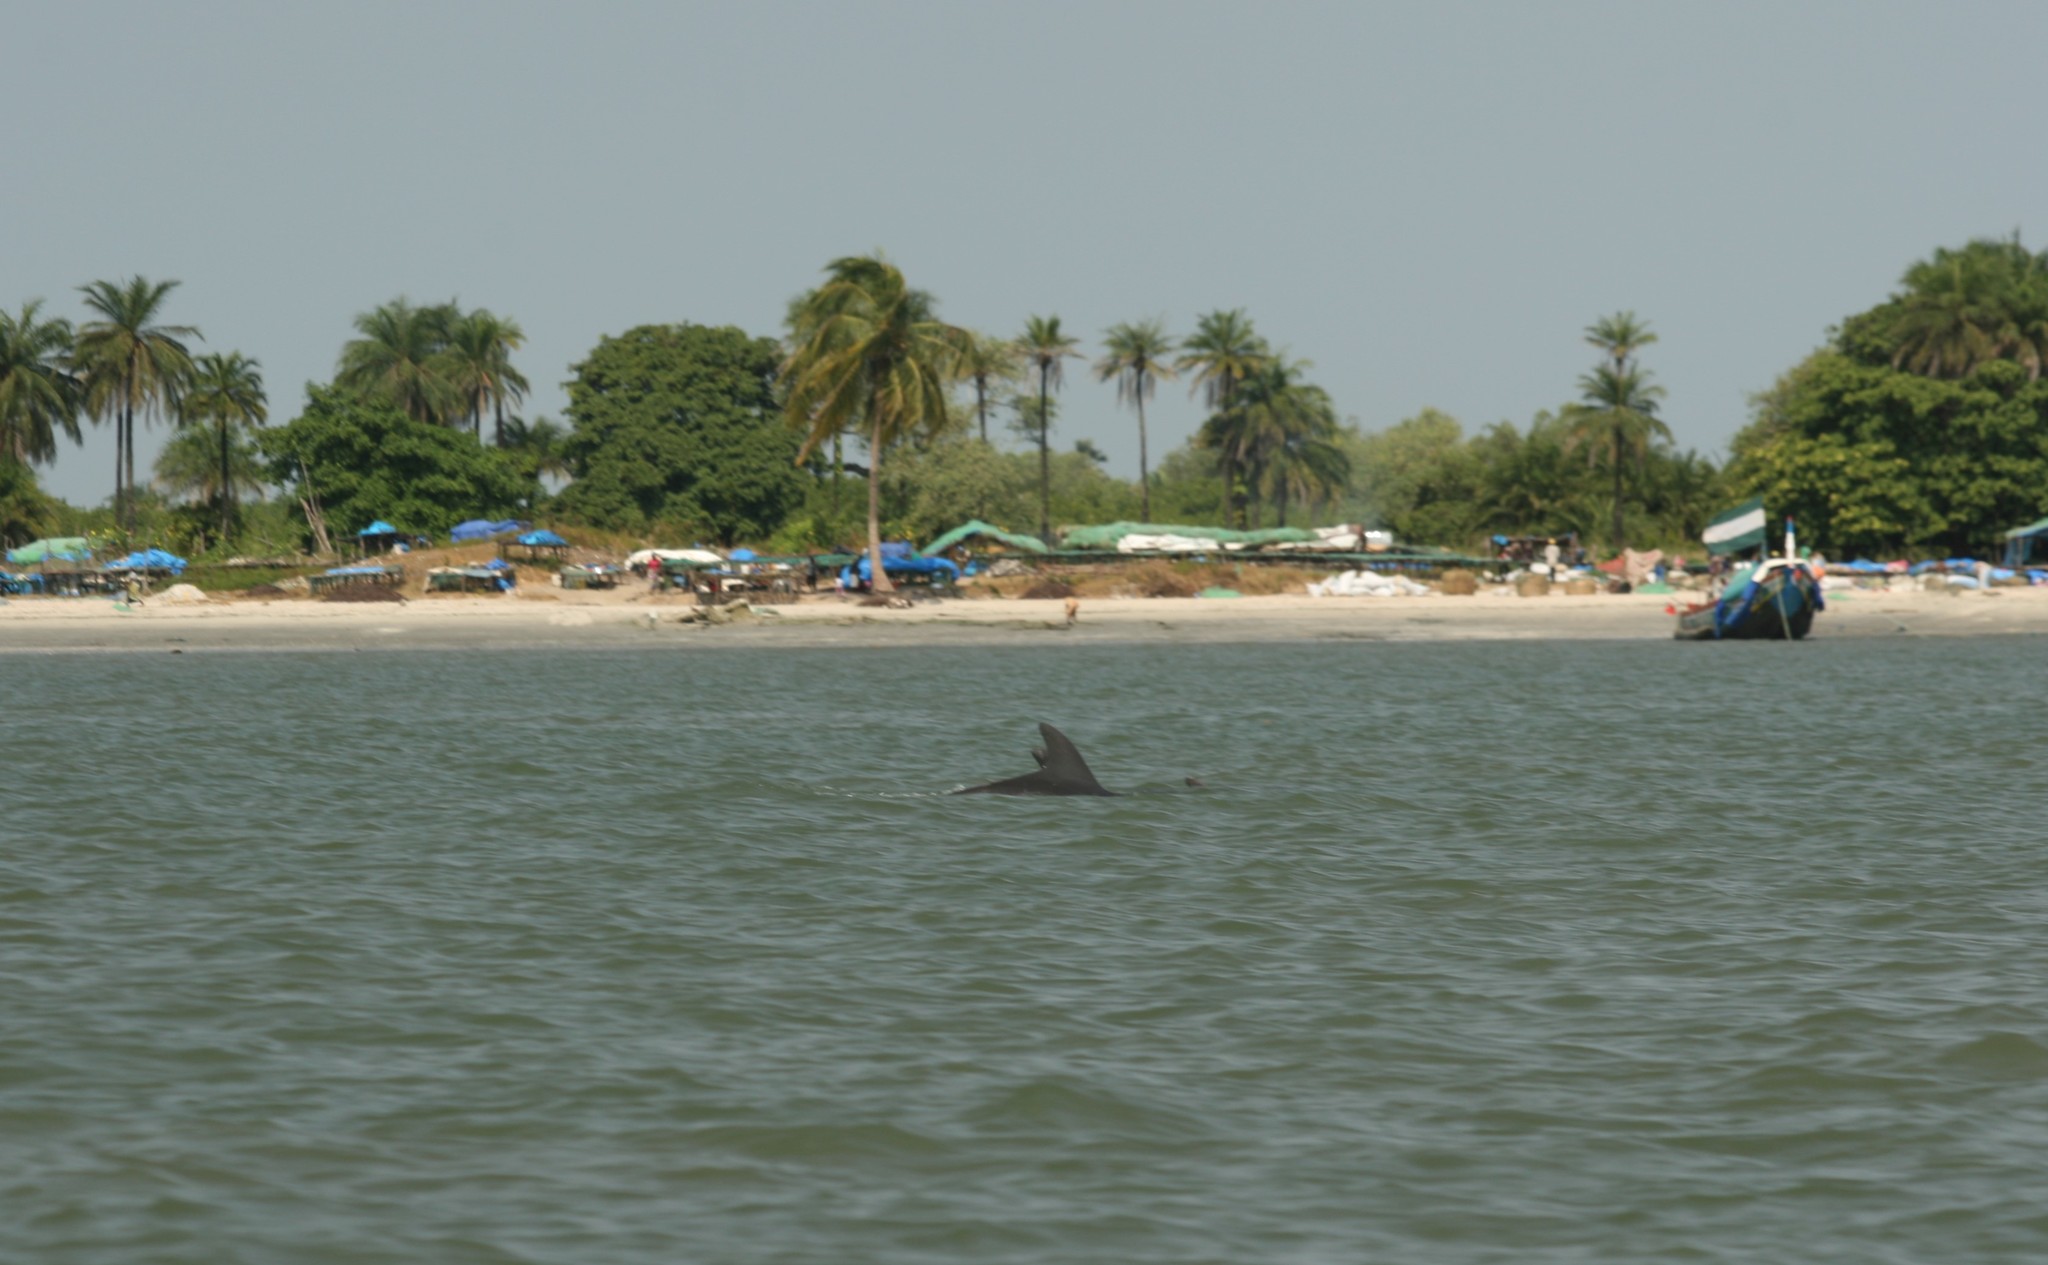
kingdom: Animalia
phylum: Chordata
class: Mammalia
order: Cetacea
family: Delphinidae
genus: Tursiops
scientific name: Tursiops truncatus
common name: Bottlenose dolphin
